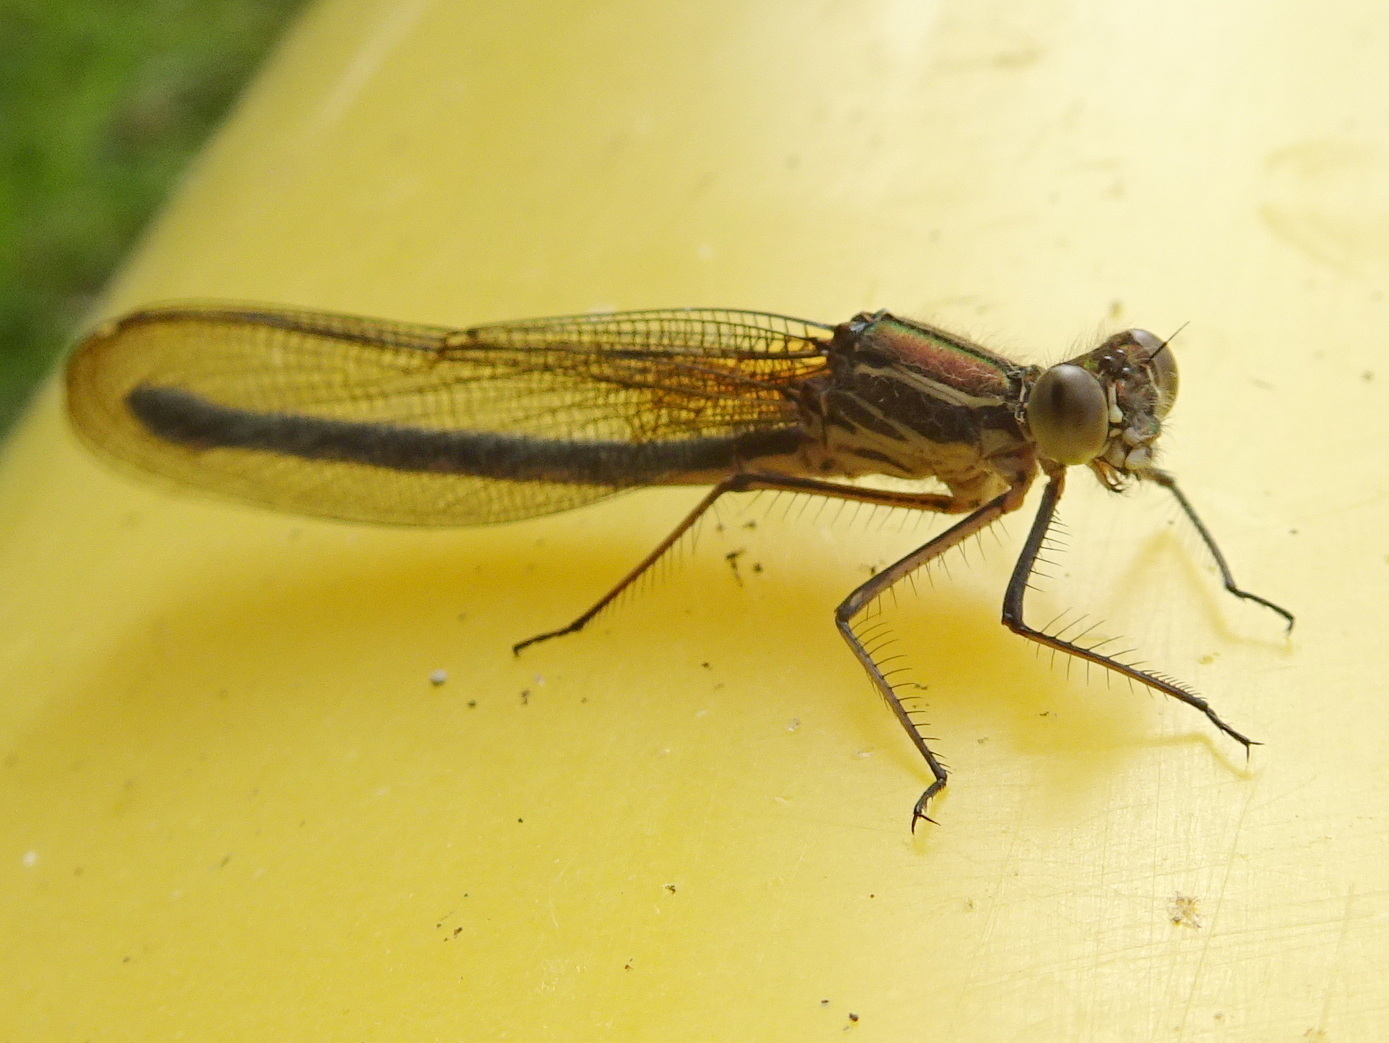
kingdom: Animalia
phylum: Arthropoda
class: Insecta
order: Odonata
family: Calopterygidae
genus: Hetaerina
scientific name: Hetaerina americana
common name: American rubyspot
